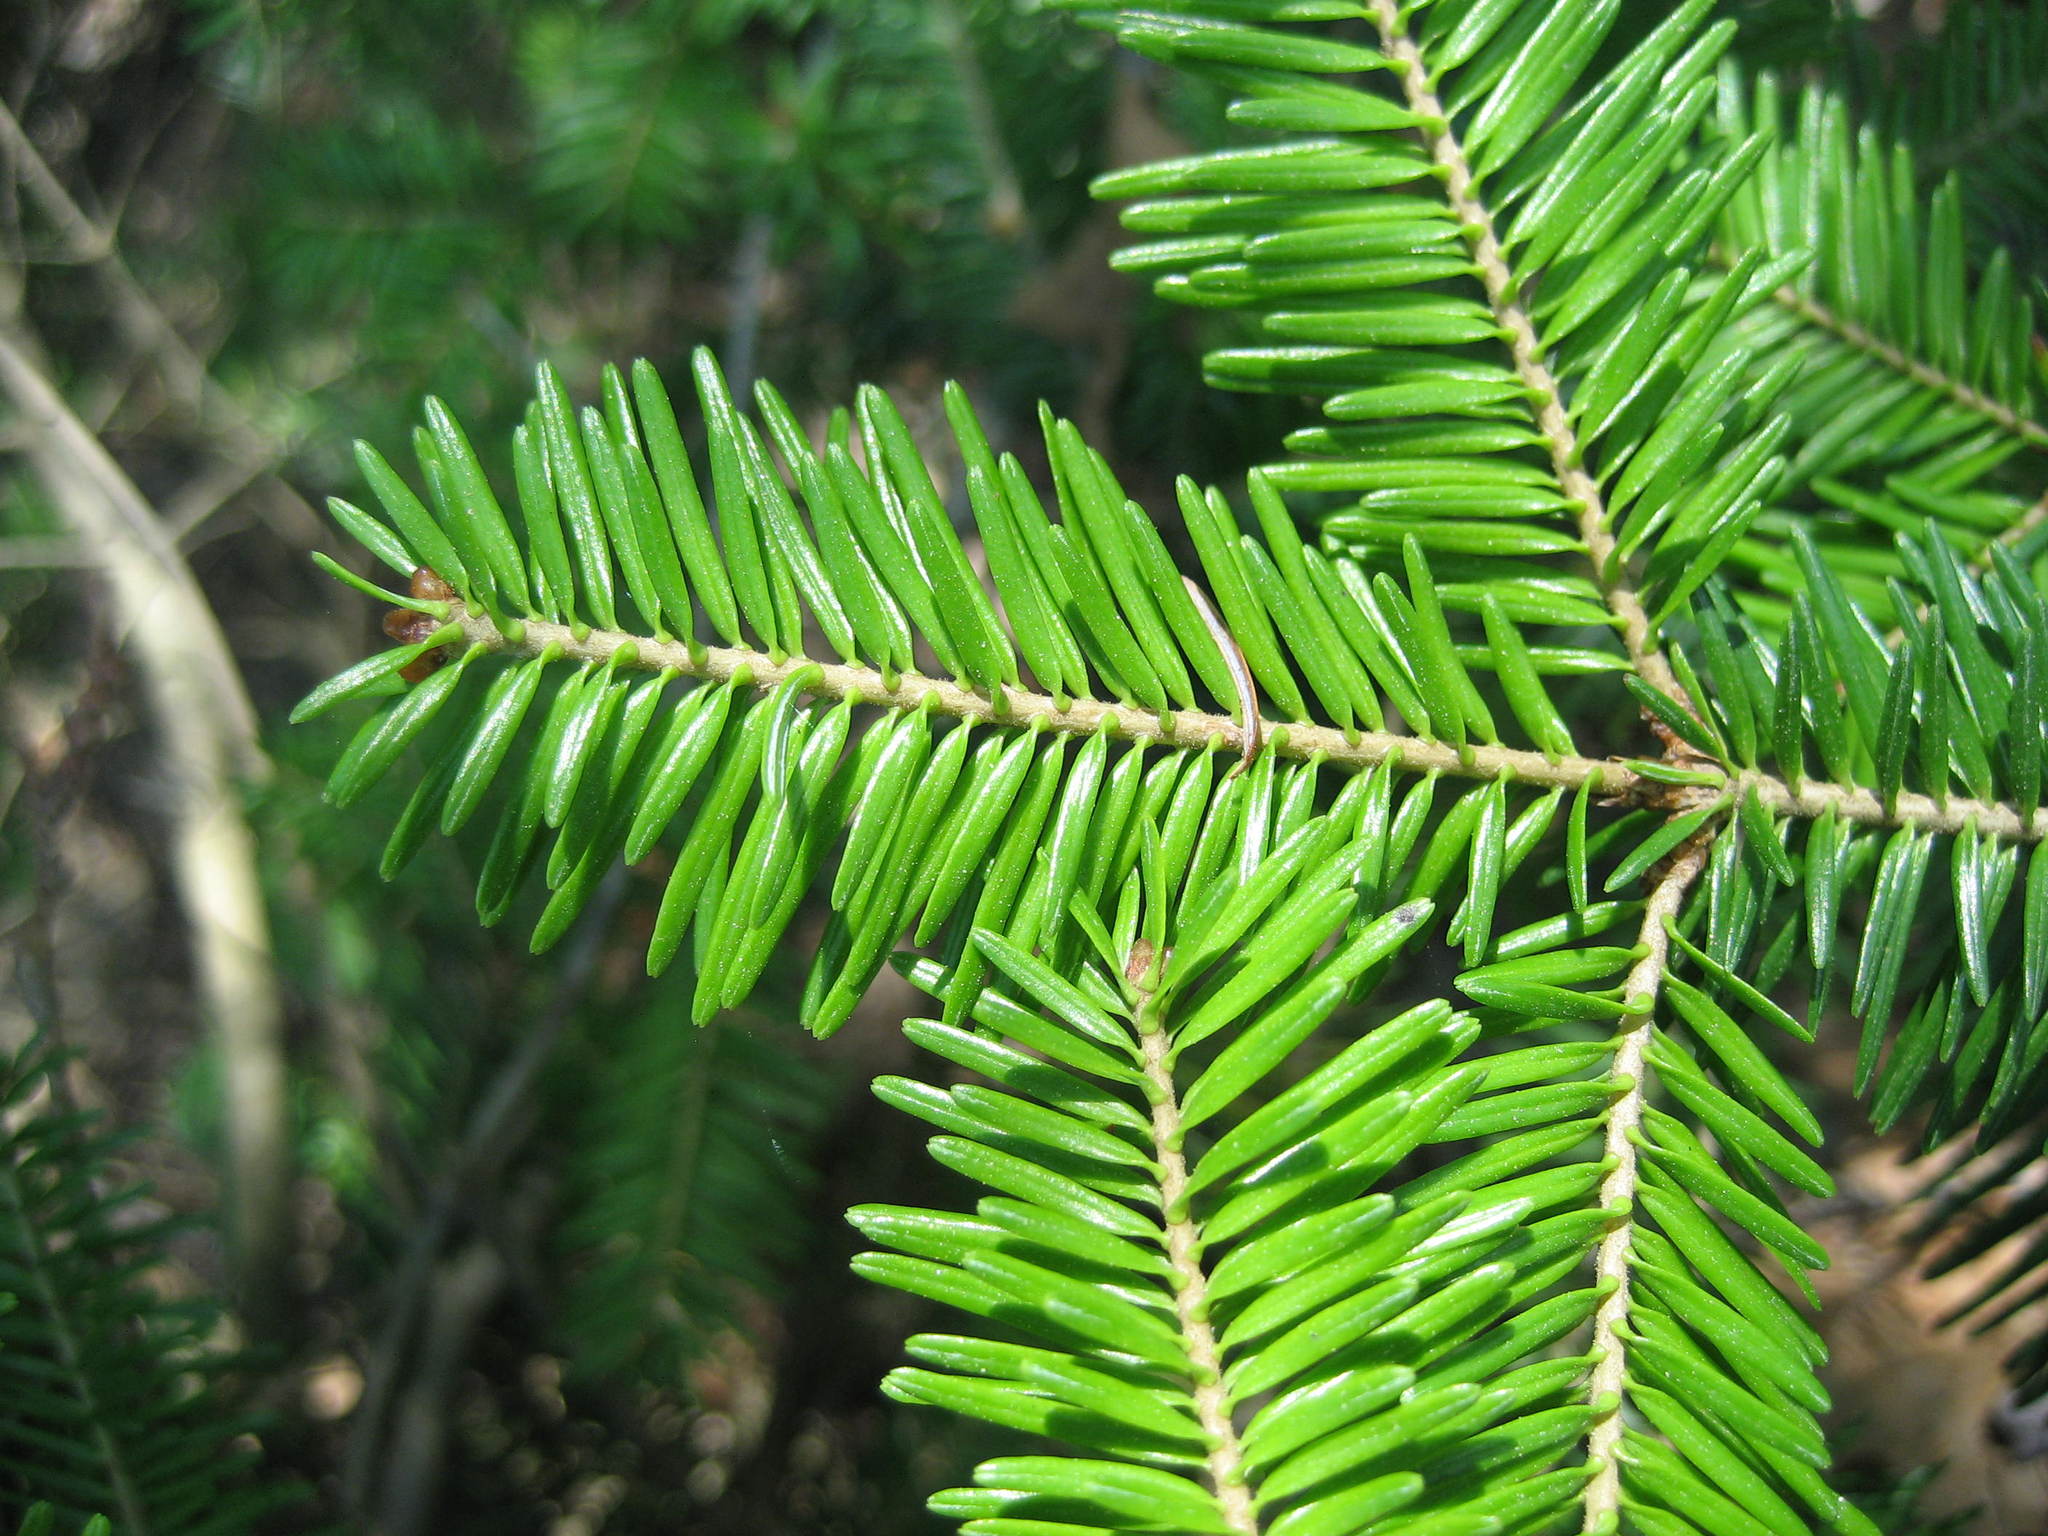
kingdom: Plantae
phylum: Tracheophyta
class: Pinopsida
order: Pinales
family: Pinaceae
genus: Abies
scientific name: Abies balsamea
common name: Balsam fir
